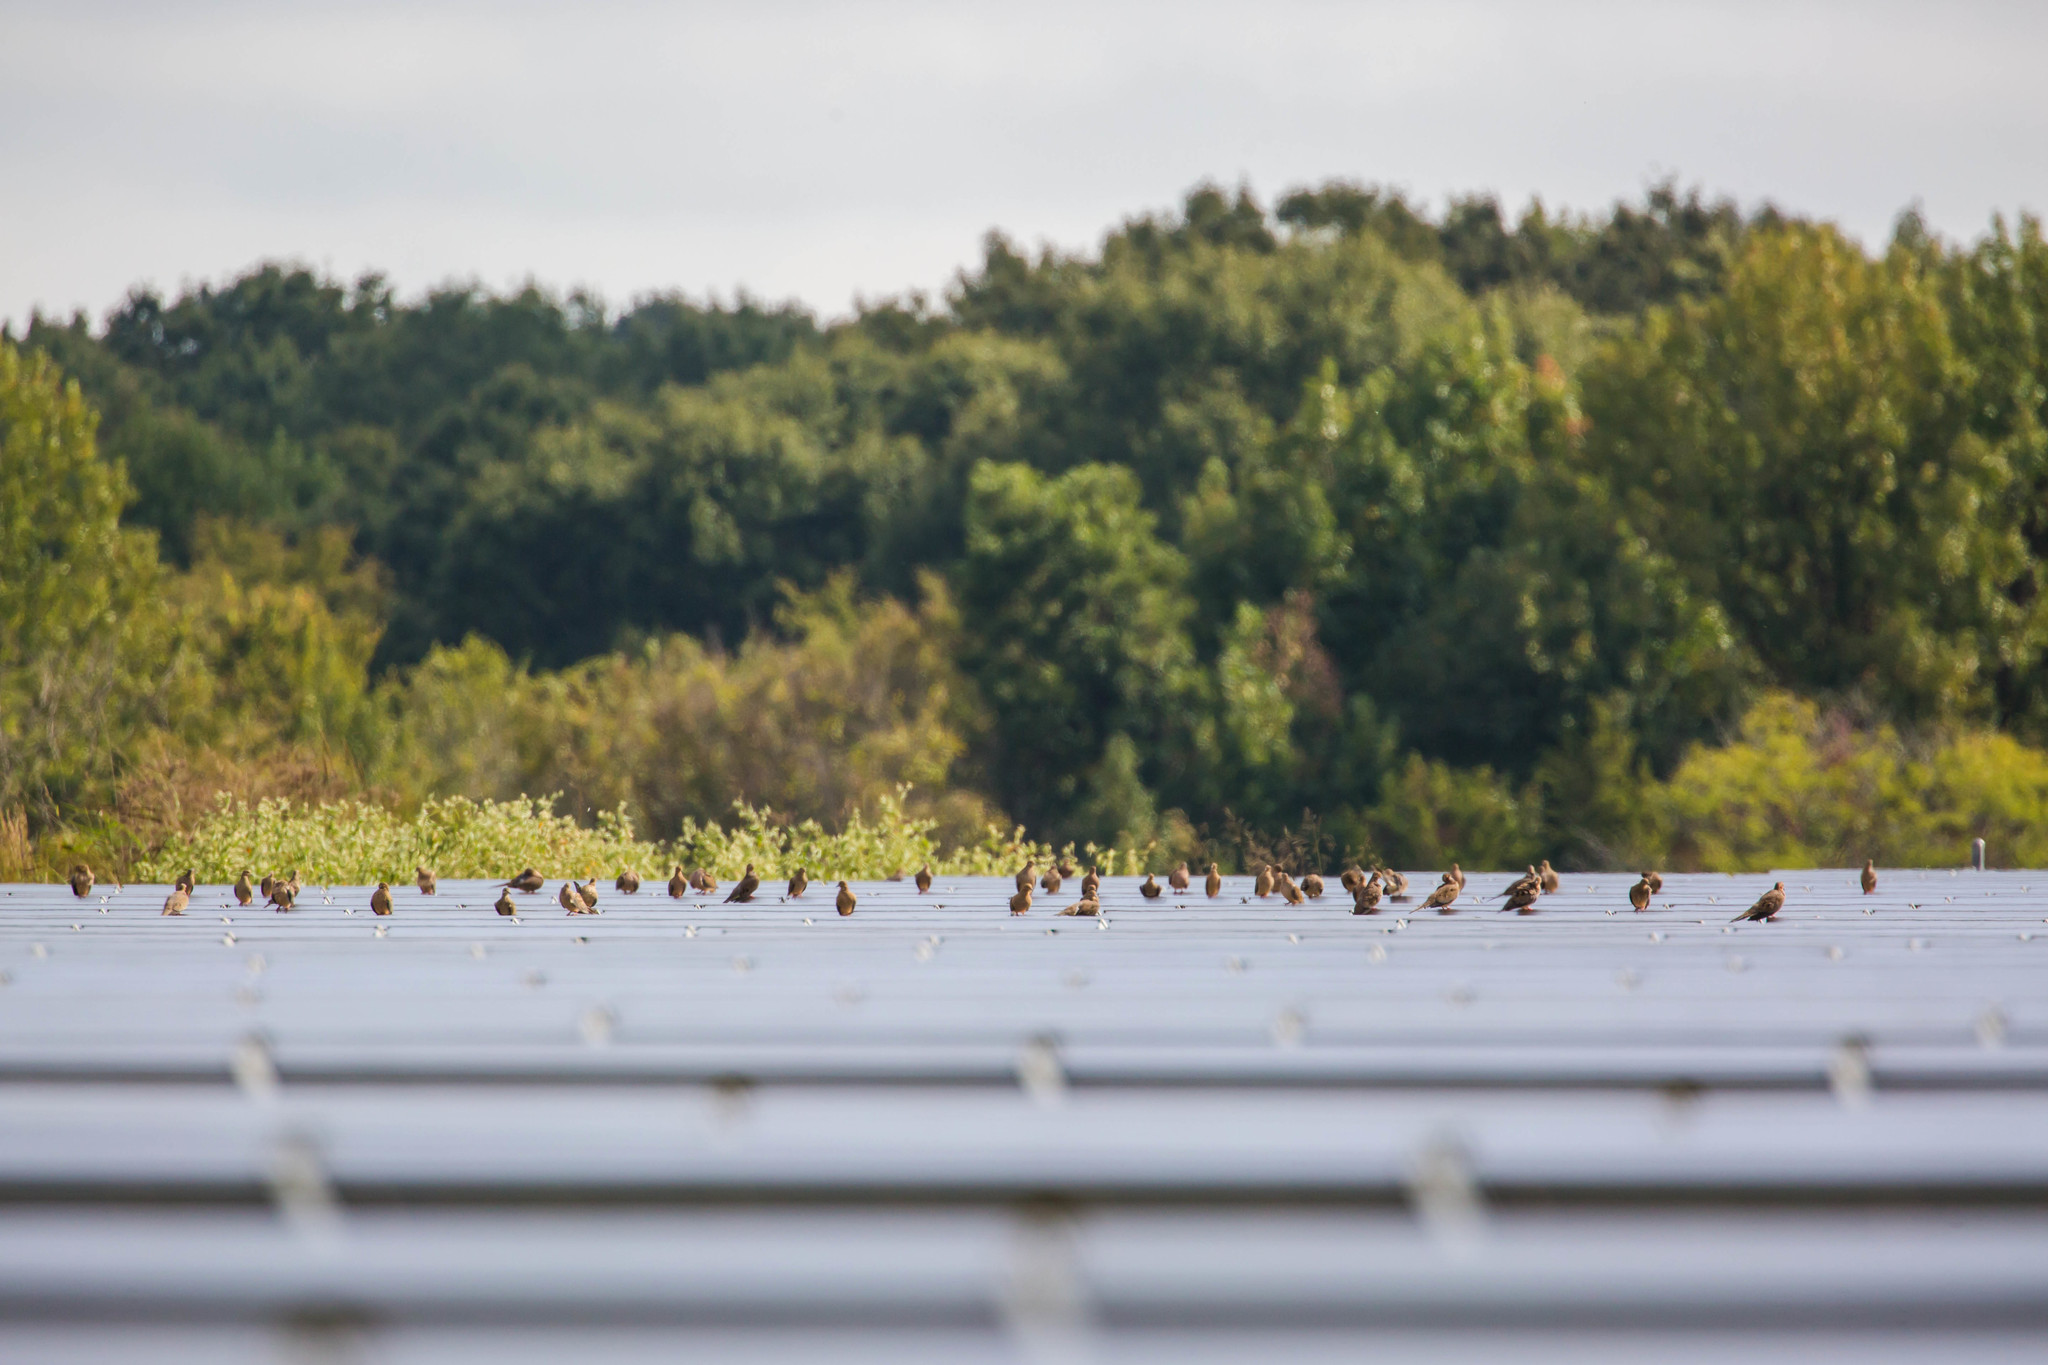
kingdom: Animalia
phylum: Chordata
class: Aves
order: Columbiformes
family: Columbidae
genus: Zenaida
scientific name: Zenaida macroura
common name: Mourning dove
